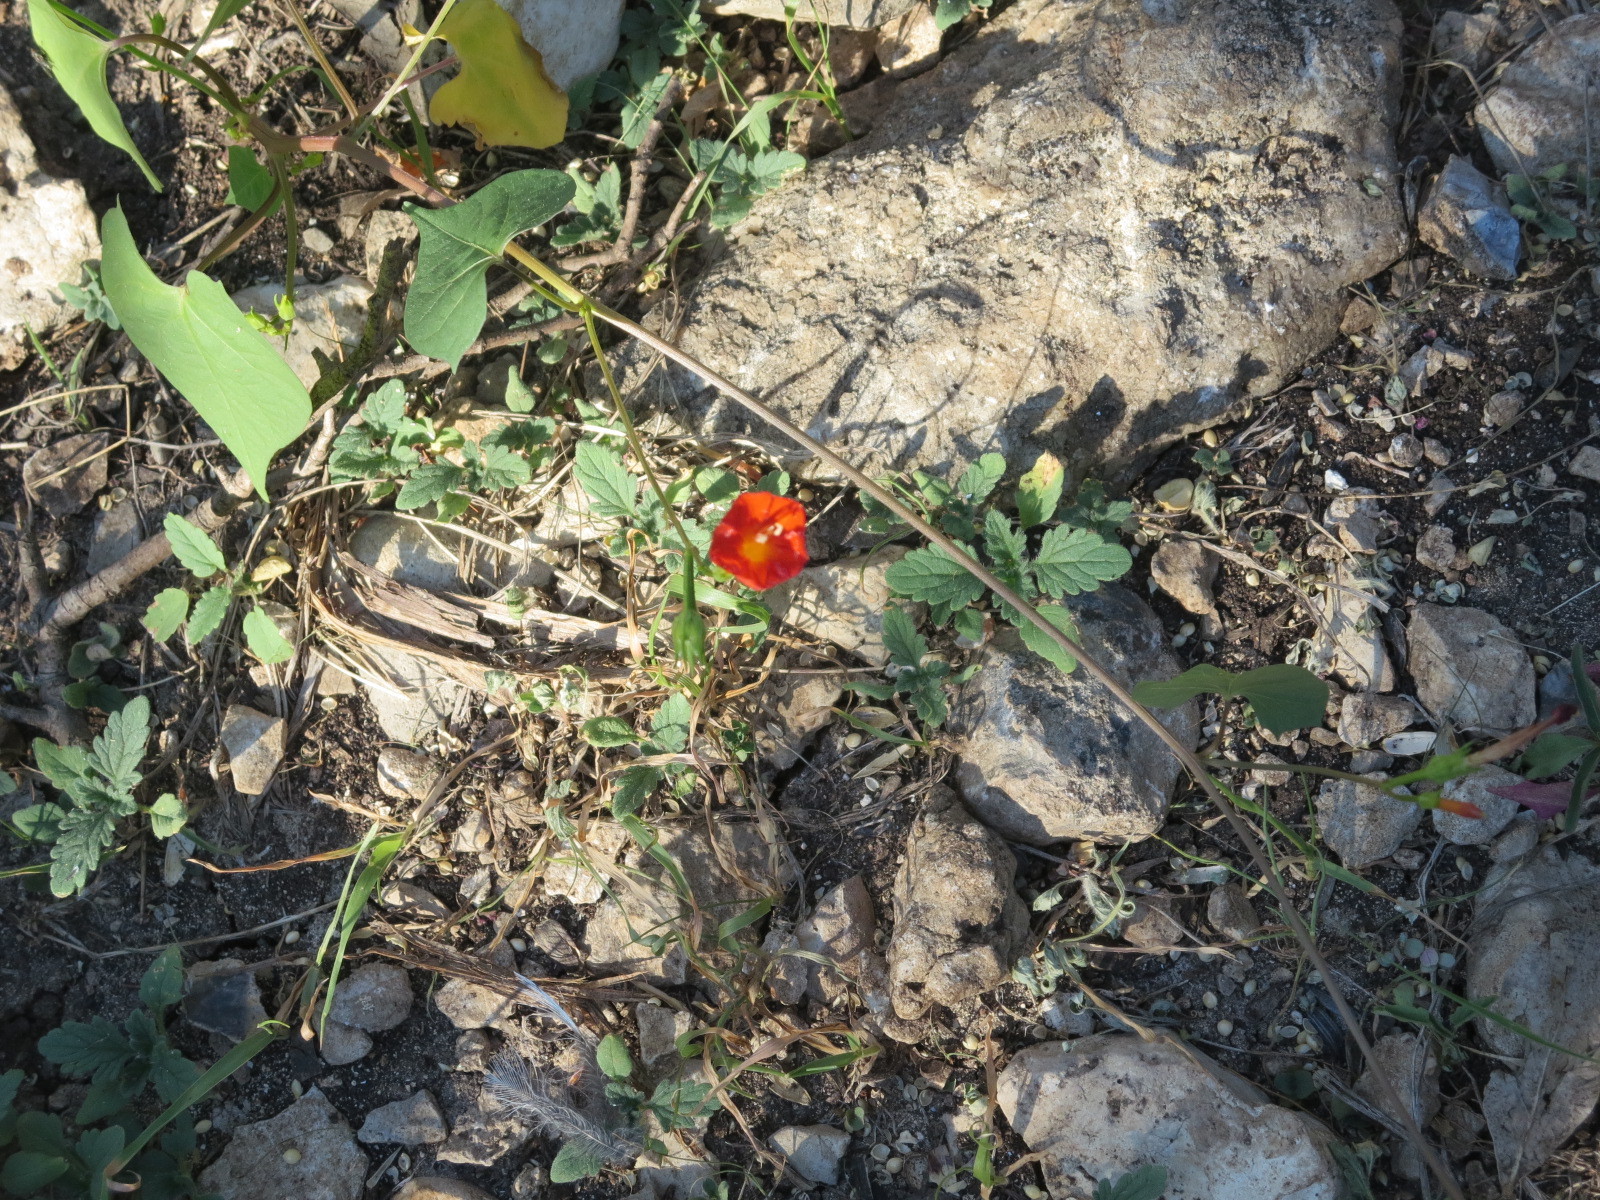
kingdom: Plantae
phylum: Tracheophyta
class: Magnoliopsida
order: Solanales
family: Convolvulaceae
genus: Ipomoea
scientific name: Ipomoea coccinea
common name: Red morning-glory
